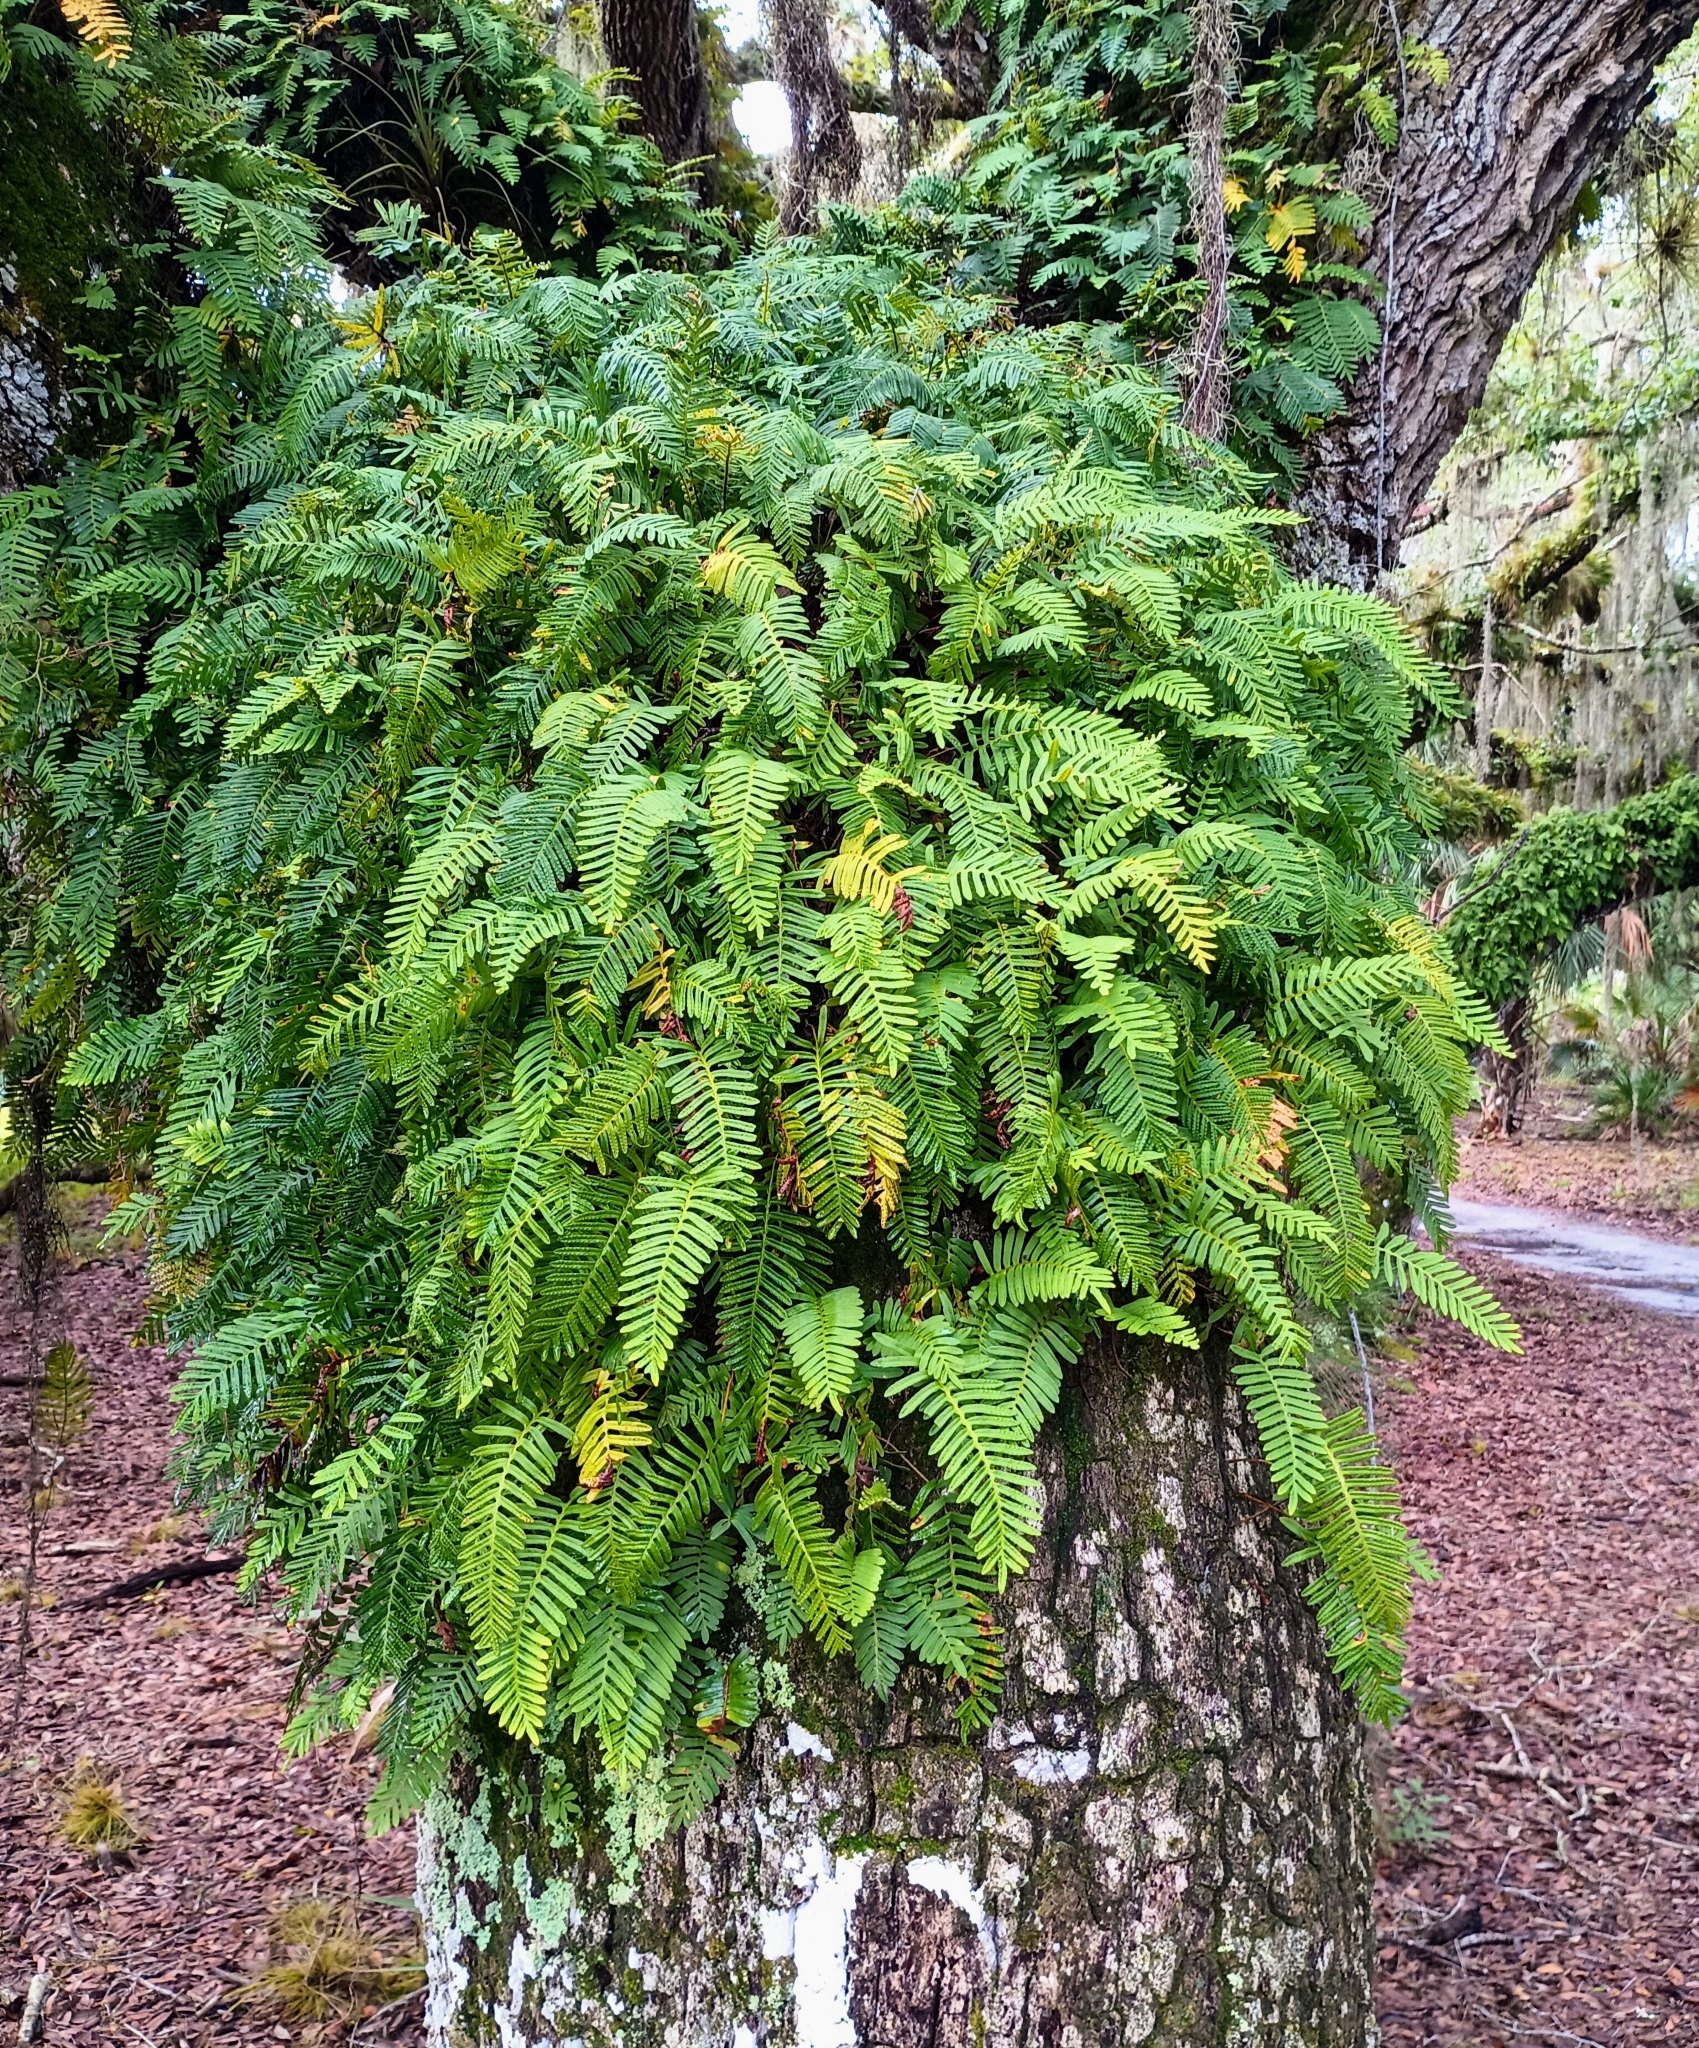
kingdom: Plantae
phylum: Tracheophyta
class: Polypodiopsida
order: Polypodiales
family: Polypodiaceae
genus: Pleopeltis
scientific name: Pleopeltis michauxiana
